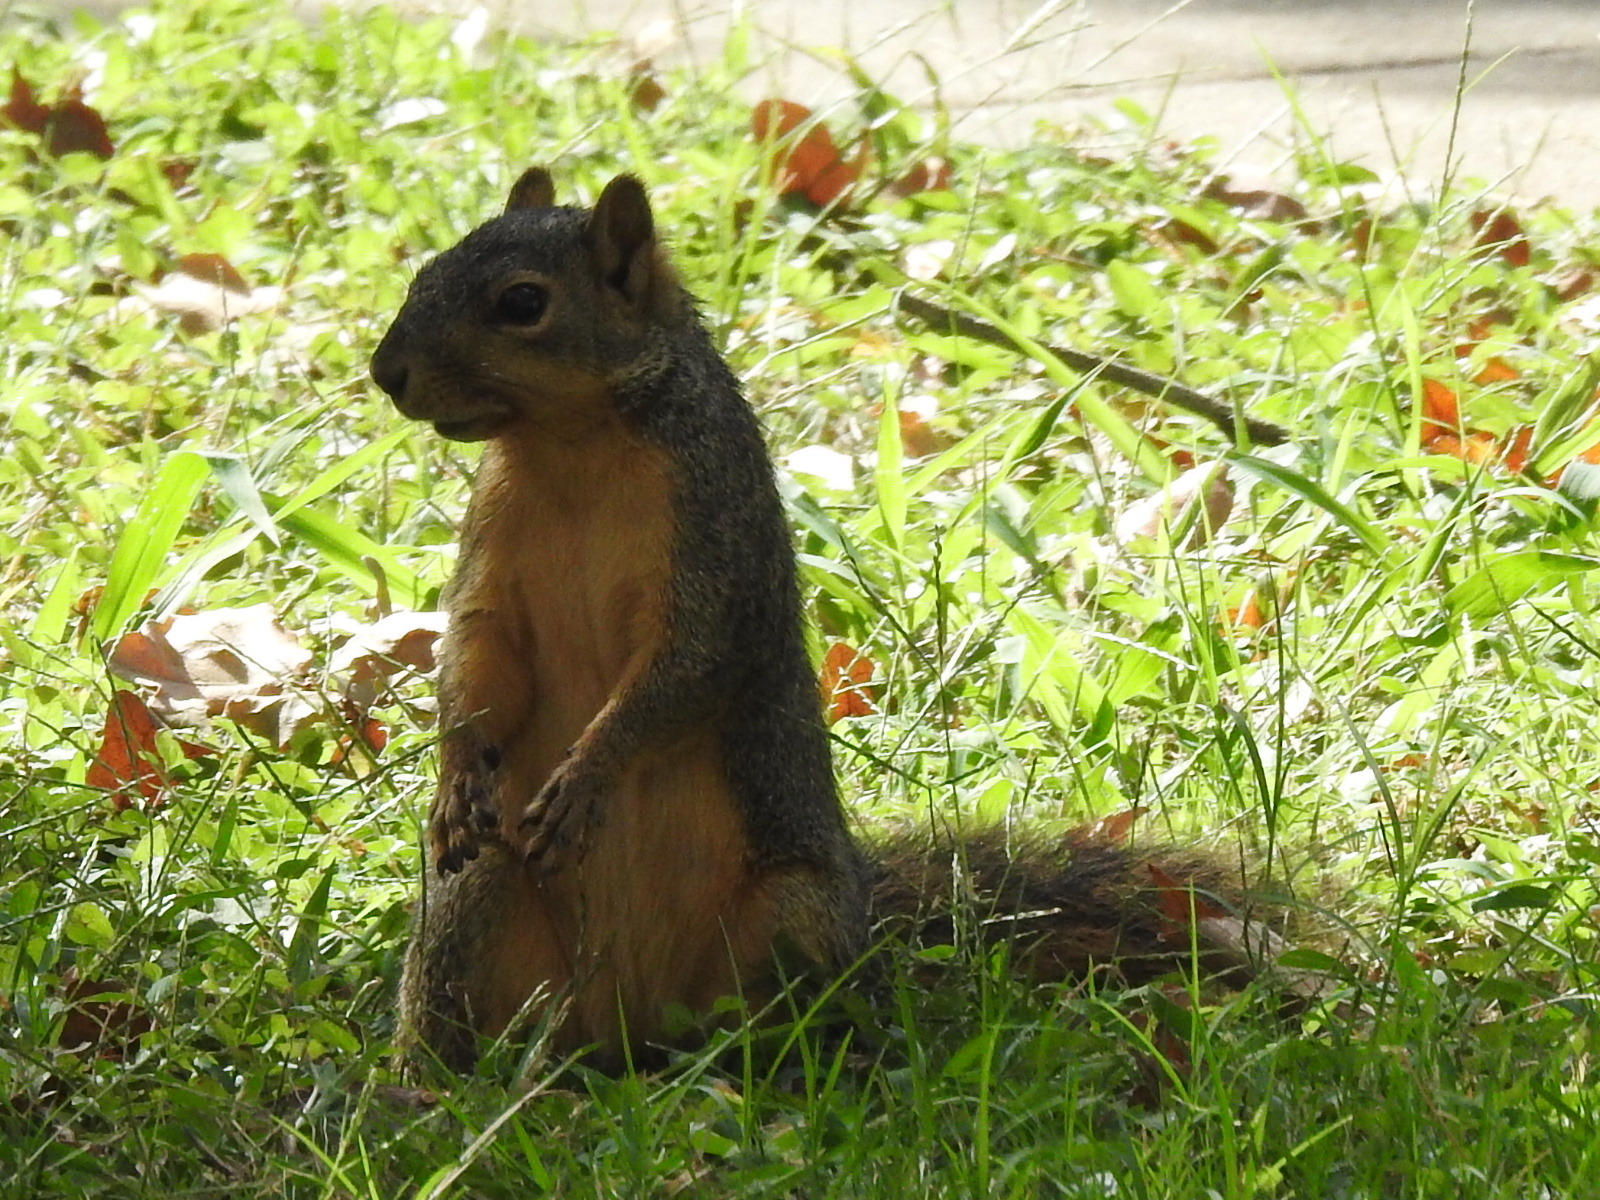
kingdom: Animalia
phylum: Chordata
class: Mammalia
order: Rodentia
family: Sciuridae
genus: Sciurus
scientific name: Sciurus niger
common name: Fox squirrel
